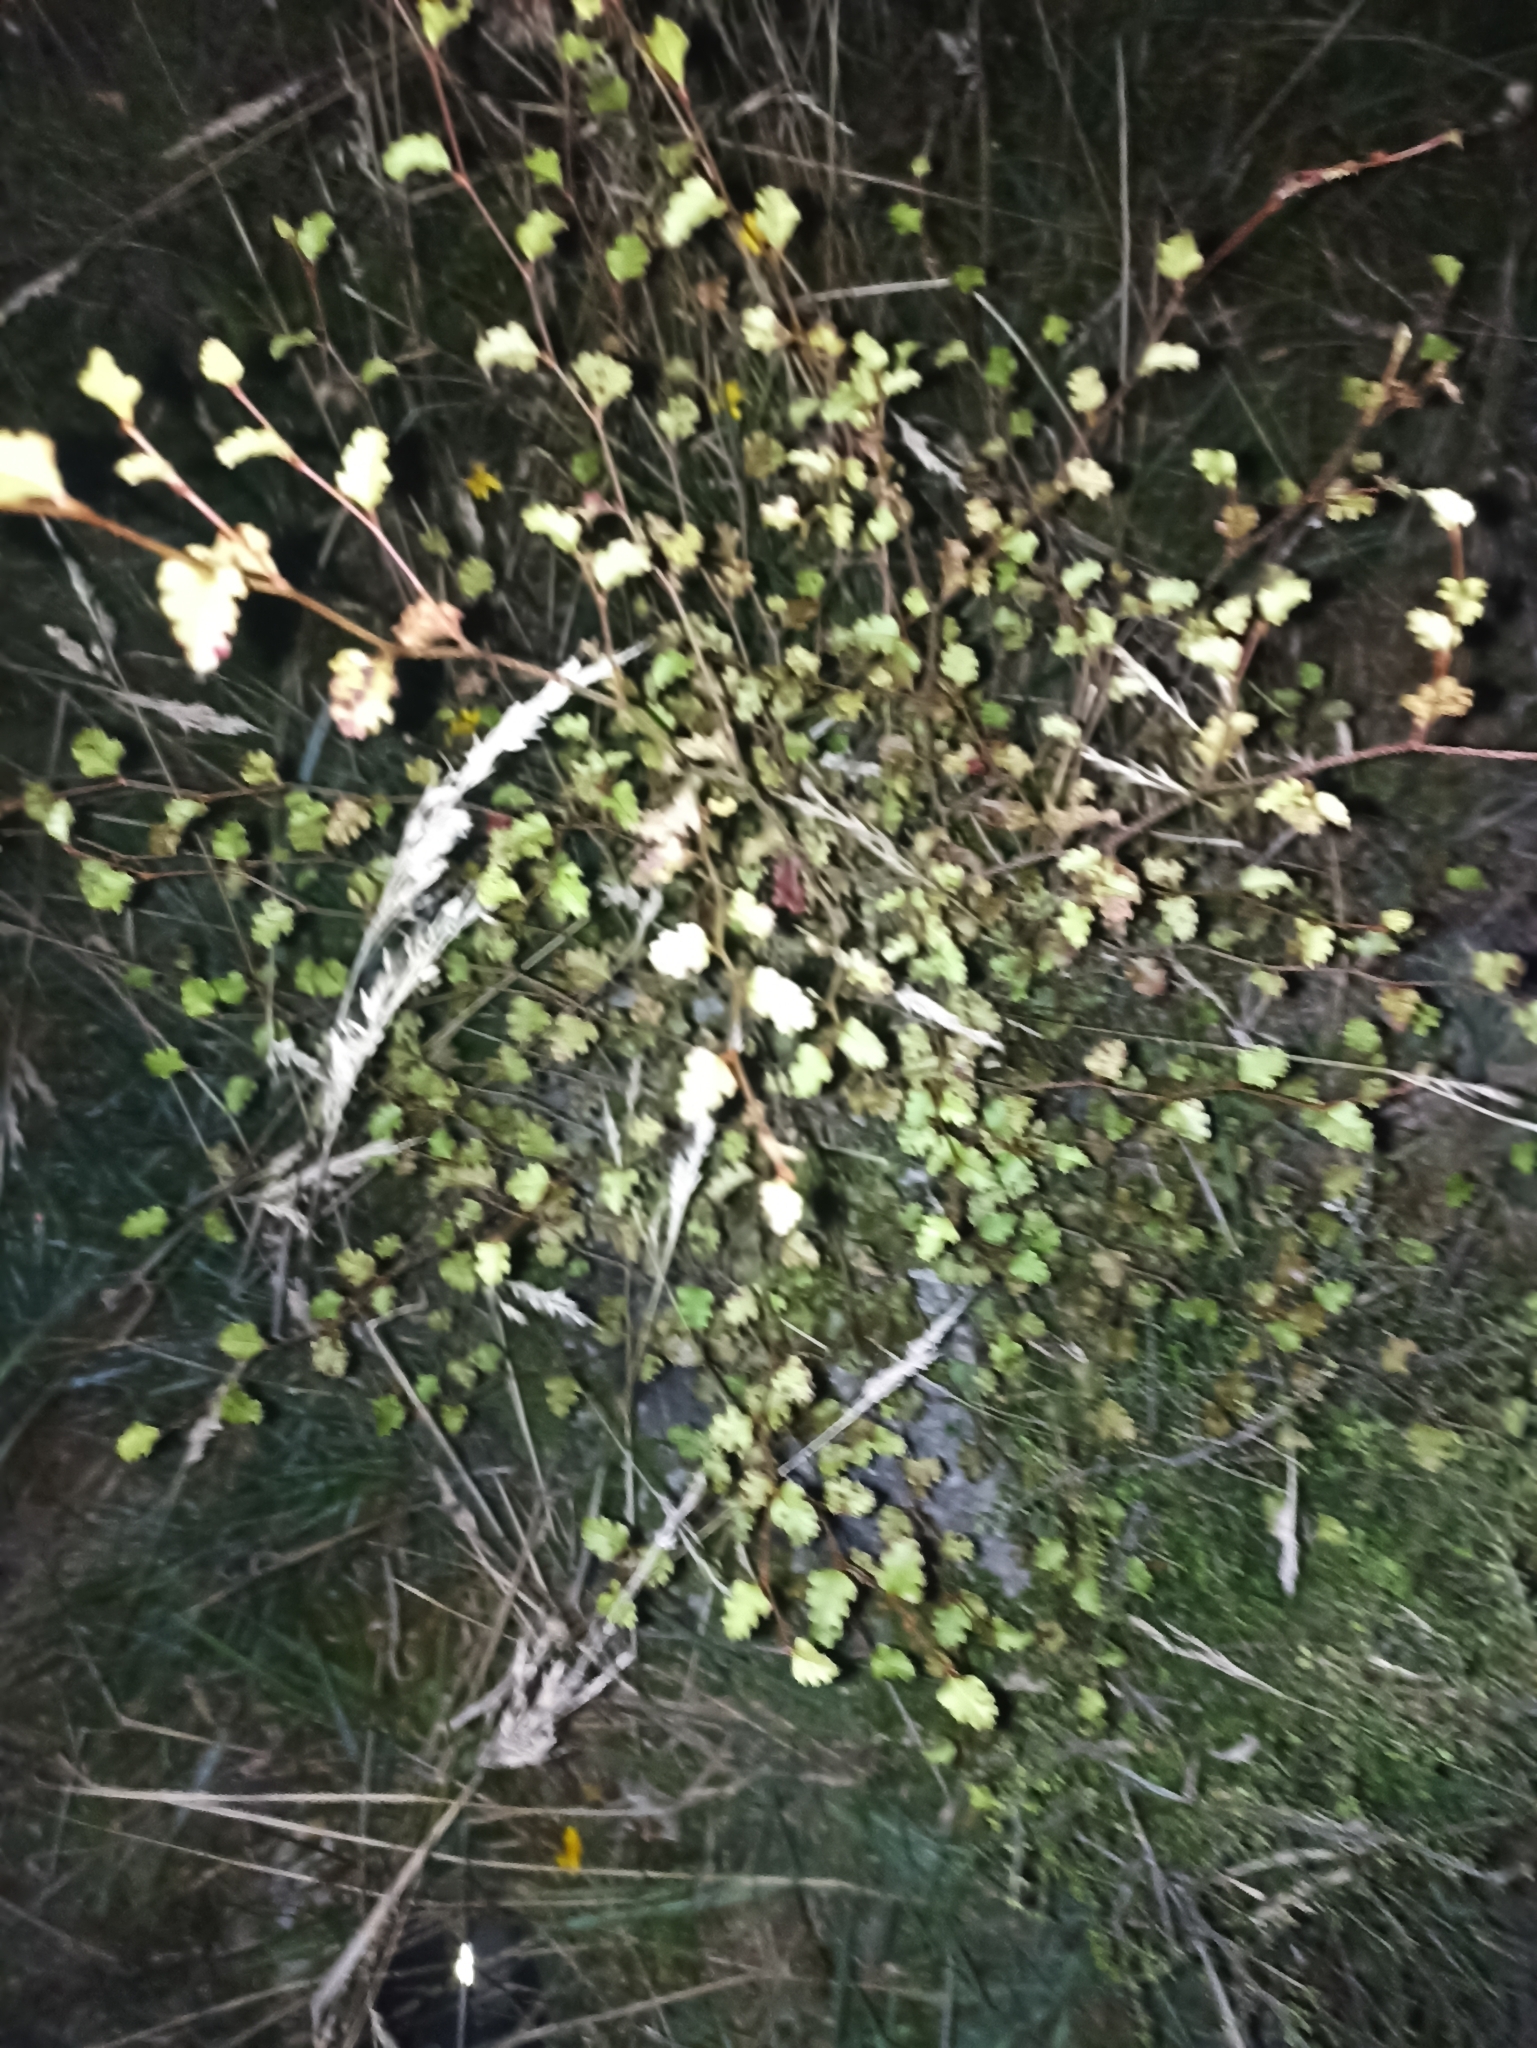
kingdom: Plantae
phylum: Tracheophyta
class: Magnoliopsida
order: Fagales
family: Nothofagaceae
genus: Nothofagus
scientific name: Nothofagus fusca
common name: Red beech
